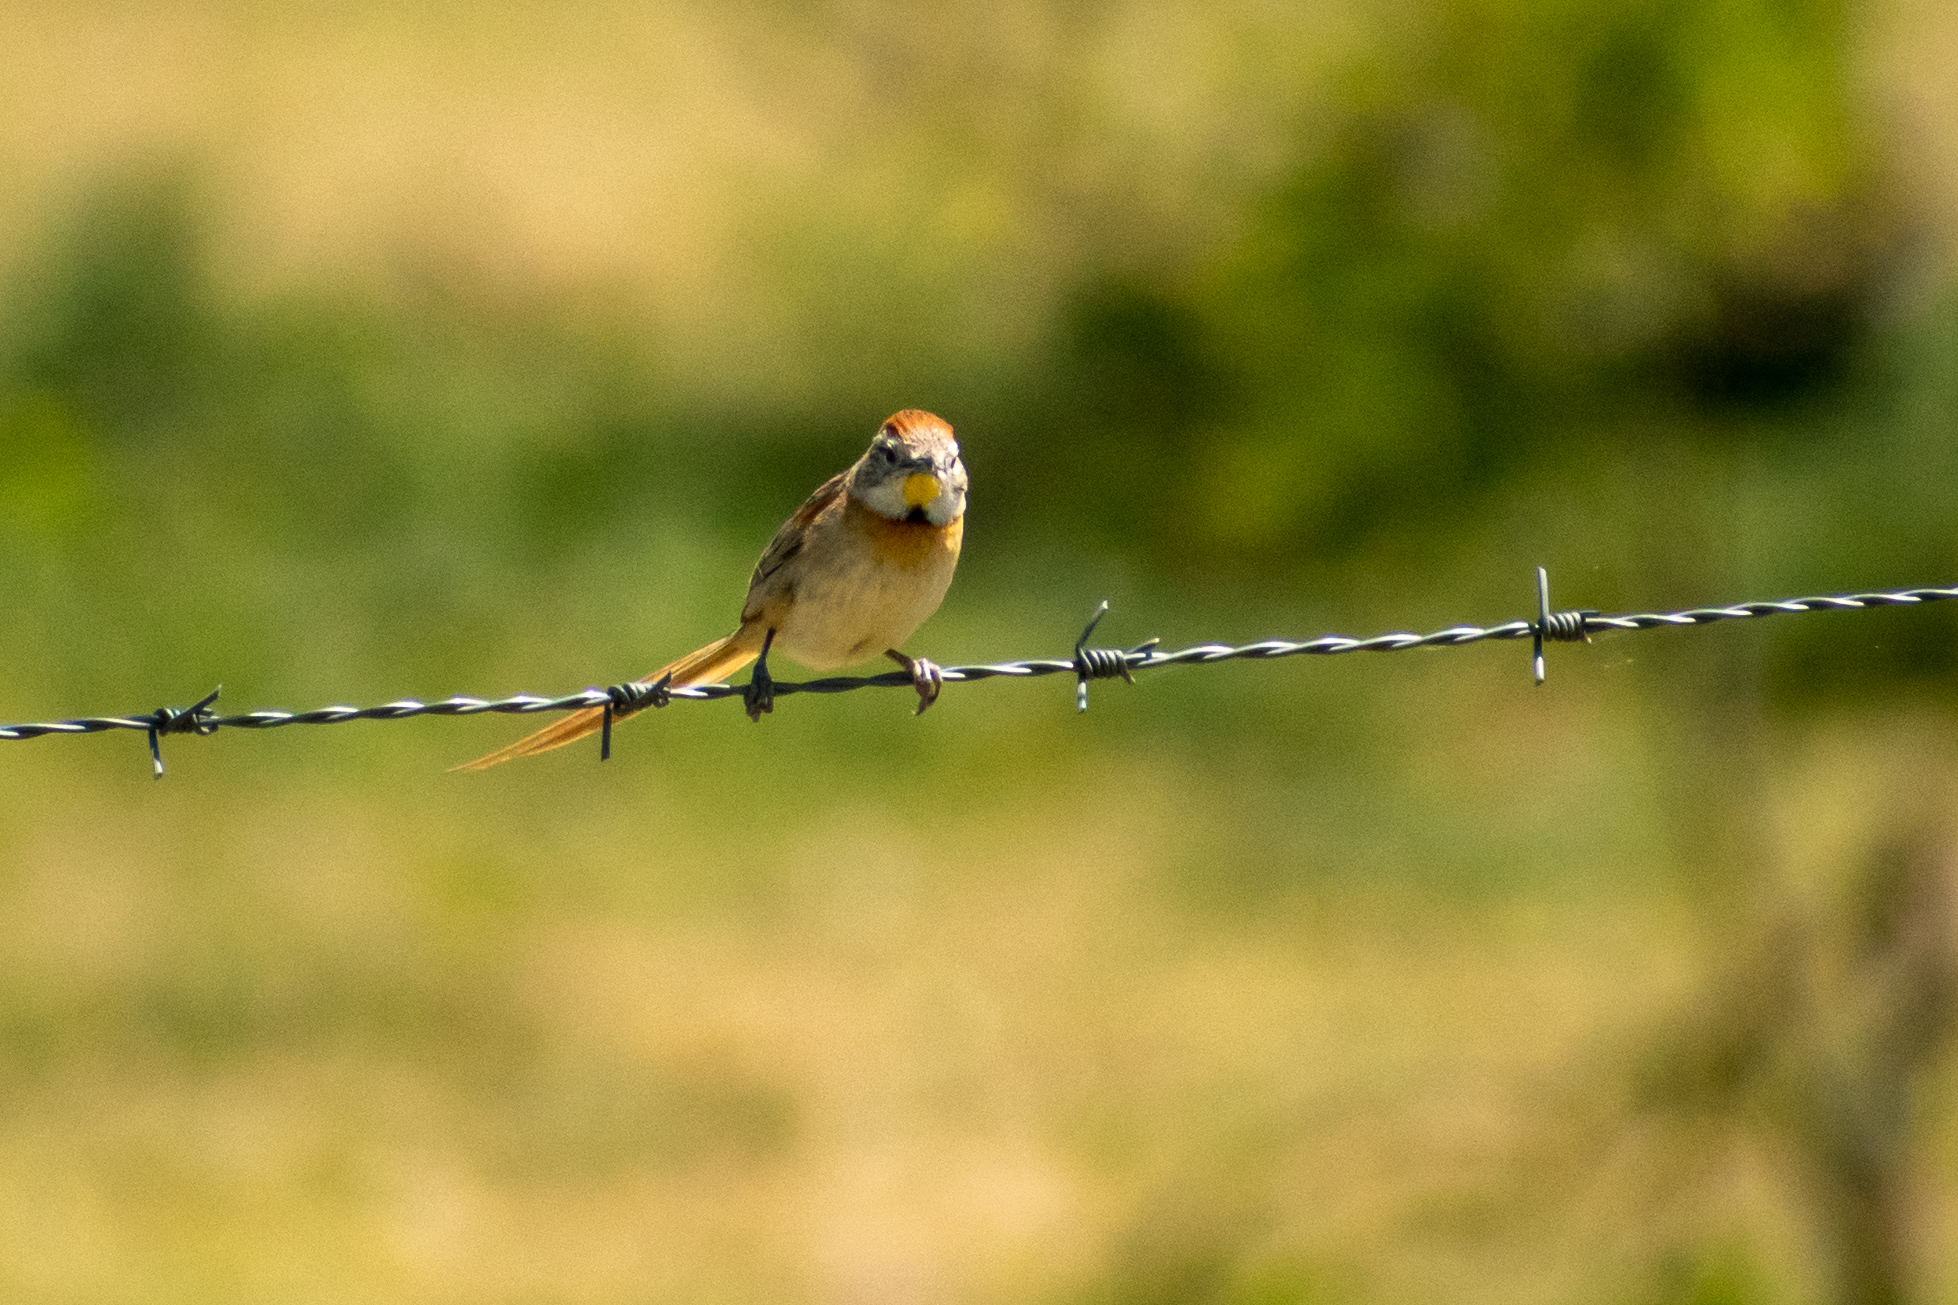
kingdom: Animalia
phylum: Chordata
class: Aves
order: Passeriformes
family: Furnariidae
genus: Schoeniophylax
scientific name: Schoeniophylax phryganophilus
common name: Chotoy spinetail
